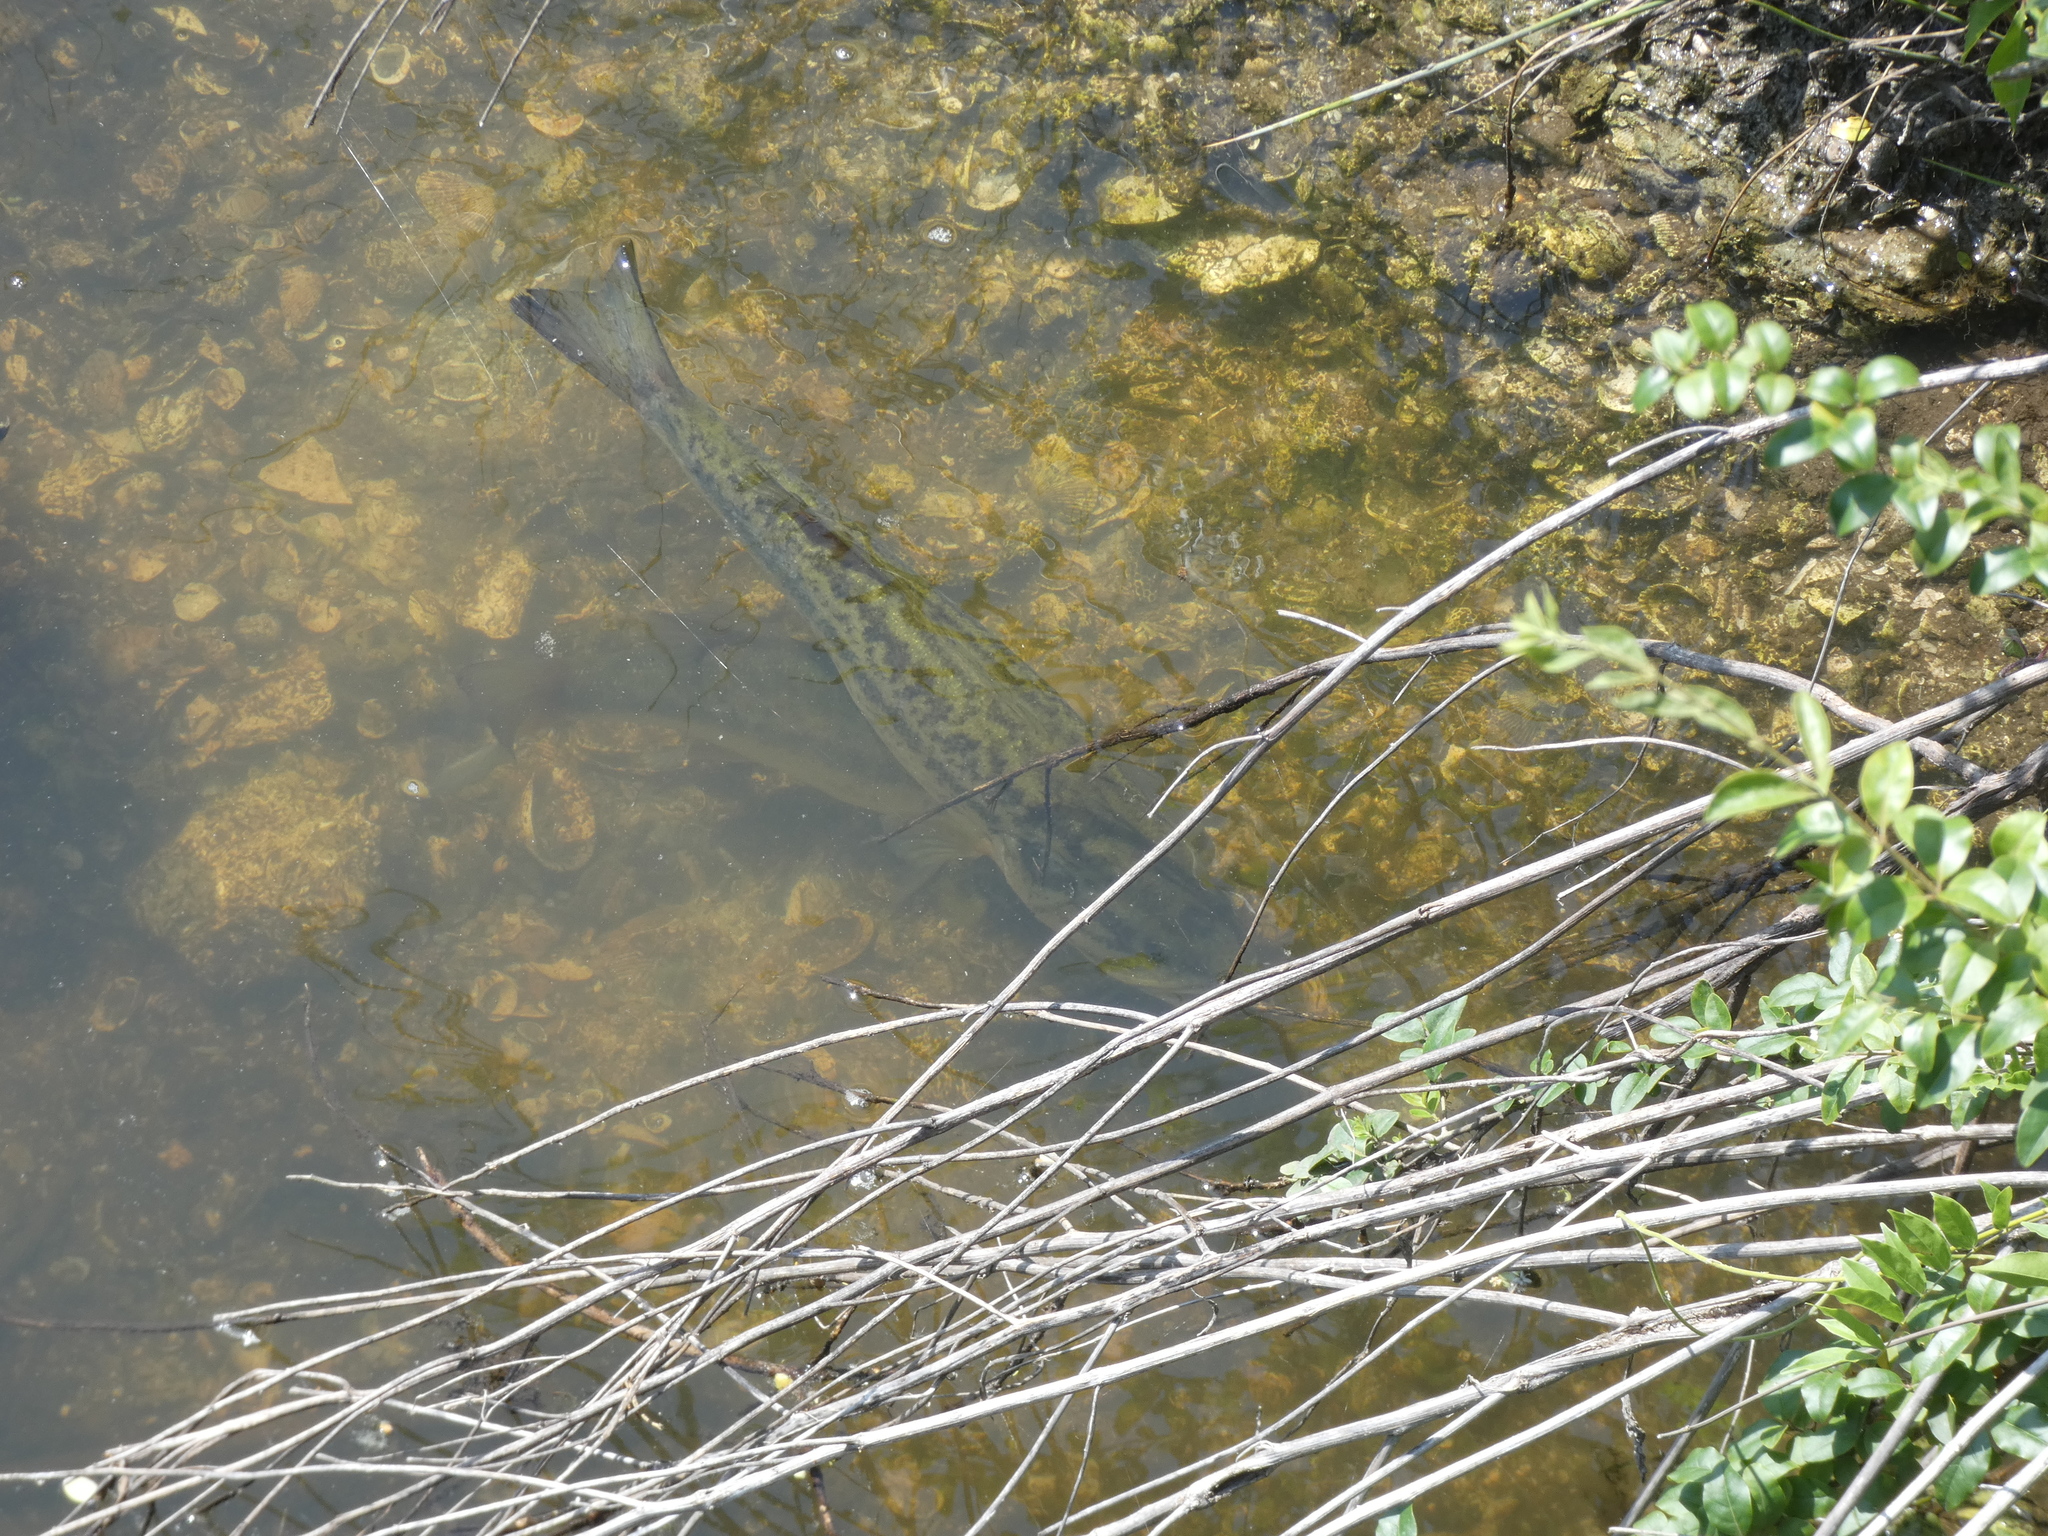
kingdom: Animalia
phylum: Chordata
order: Perciformes
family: Centrarchidae
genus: Micropterus
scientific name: Micropterus salmoides
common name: Largemouth bass
